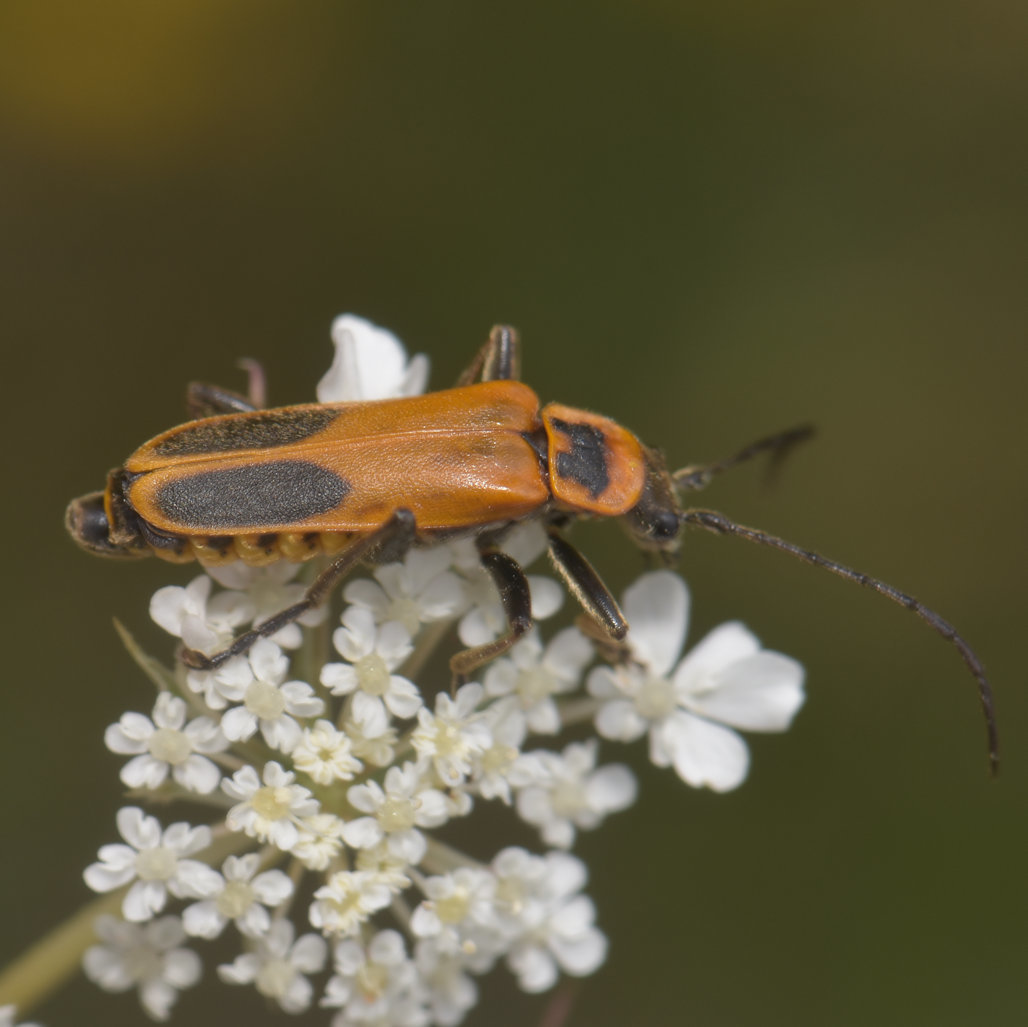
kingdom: Animalia
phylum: Arthropoda
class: Insecta
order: Coleoptera
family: Cantharidae
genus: Chauliognathus
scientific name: Chauliognathus pensylvanicus
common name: Goldenrod soldier beetle
